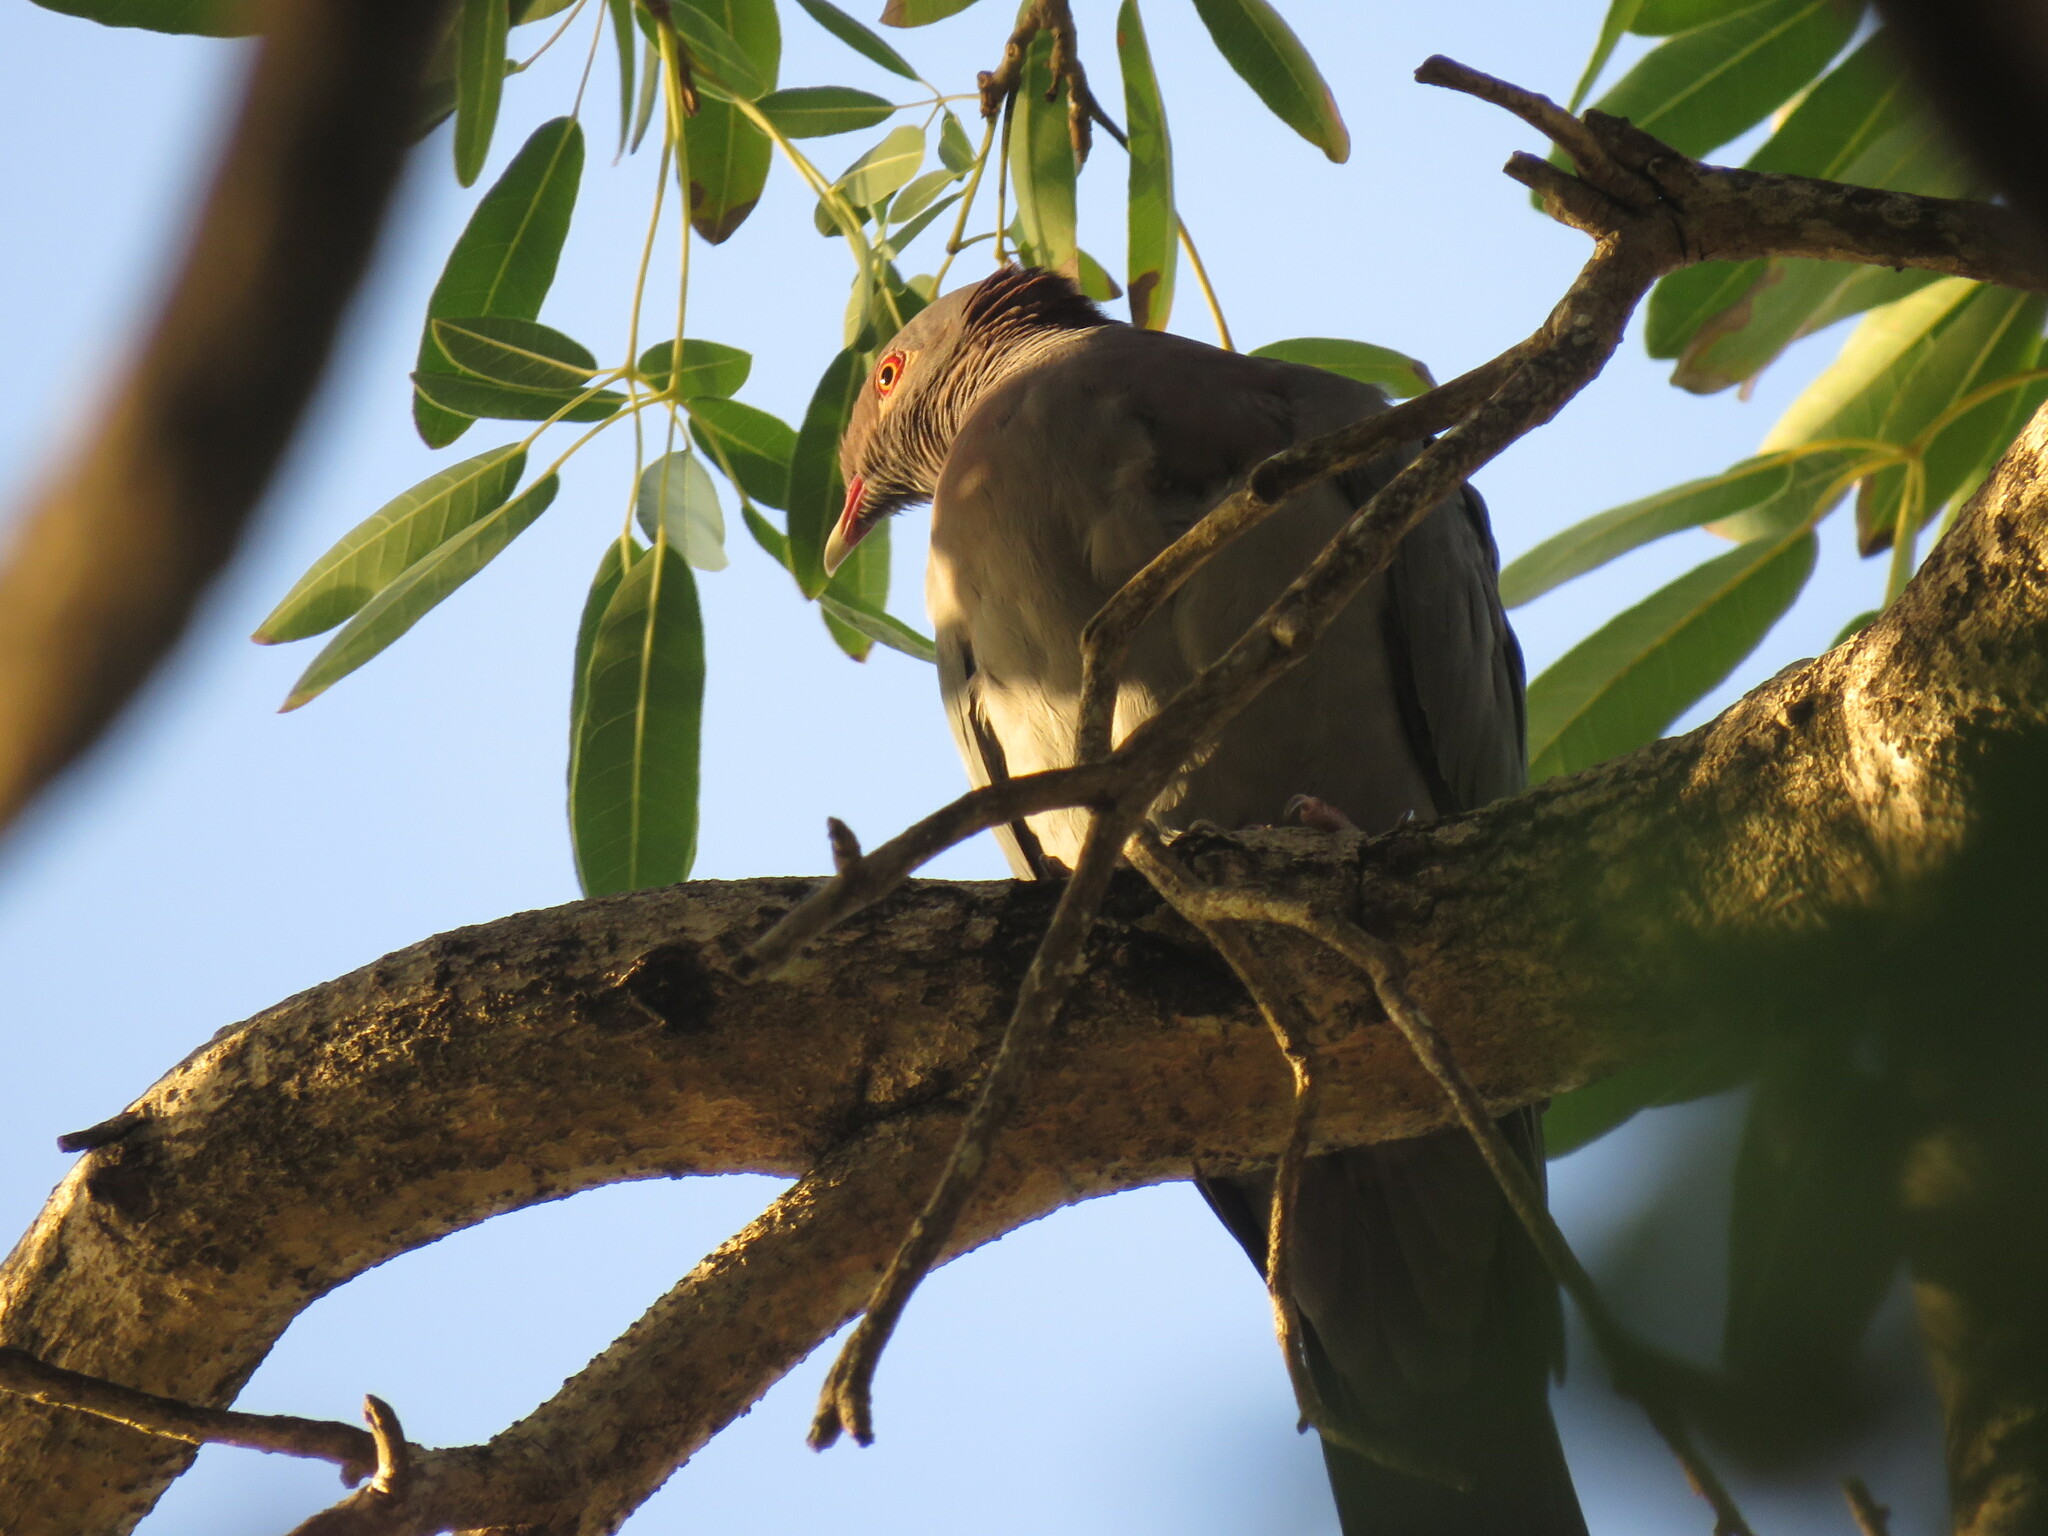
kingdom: Animalia
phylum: Chordata
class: Aves
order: Columbiformes
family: Columbidae
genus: Patagioenas
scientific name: Patagioenas squamosa
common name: Scaly-naped pigeon
